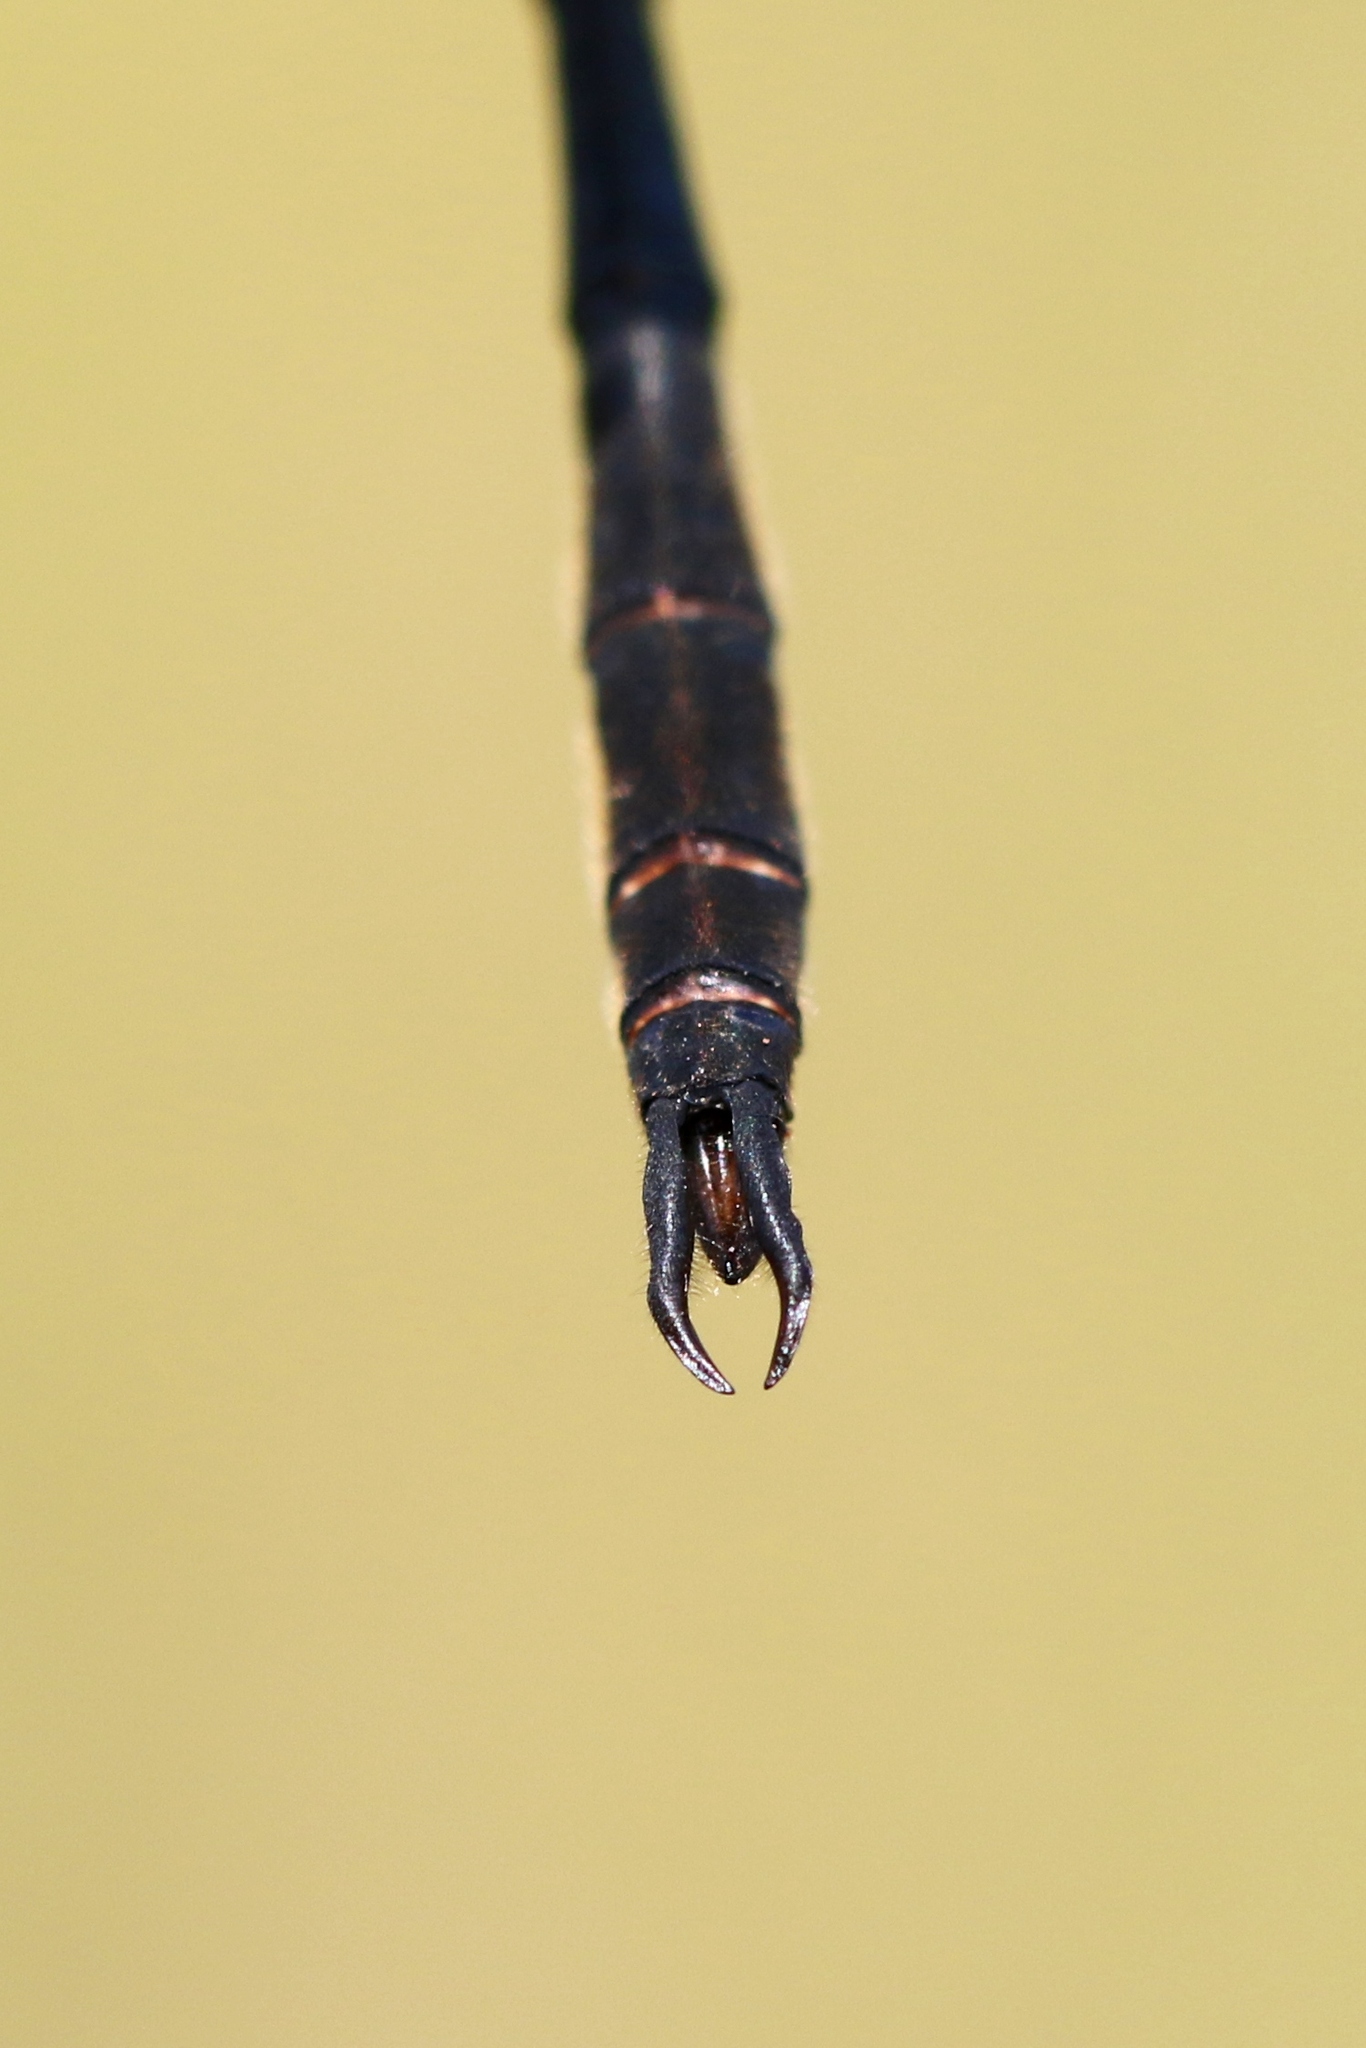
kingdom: Animalia
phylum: Arthropoda
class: Insecta
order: Odonata
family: Corduliidae
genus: Somatochlora
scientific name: Somatochlora franklini
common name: Delicate emerald
